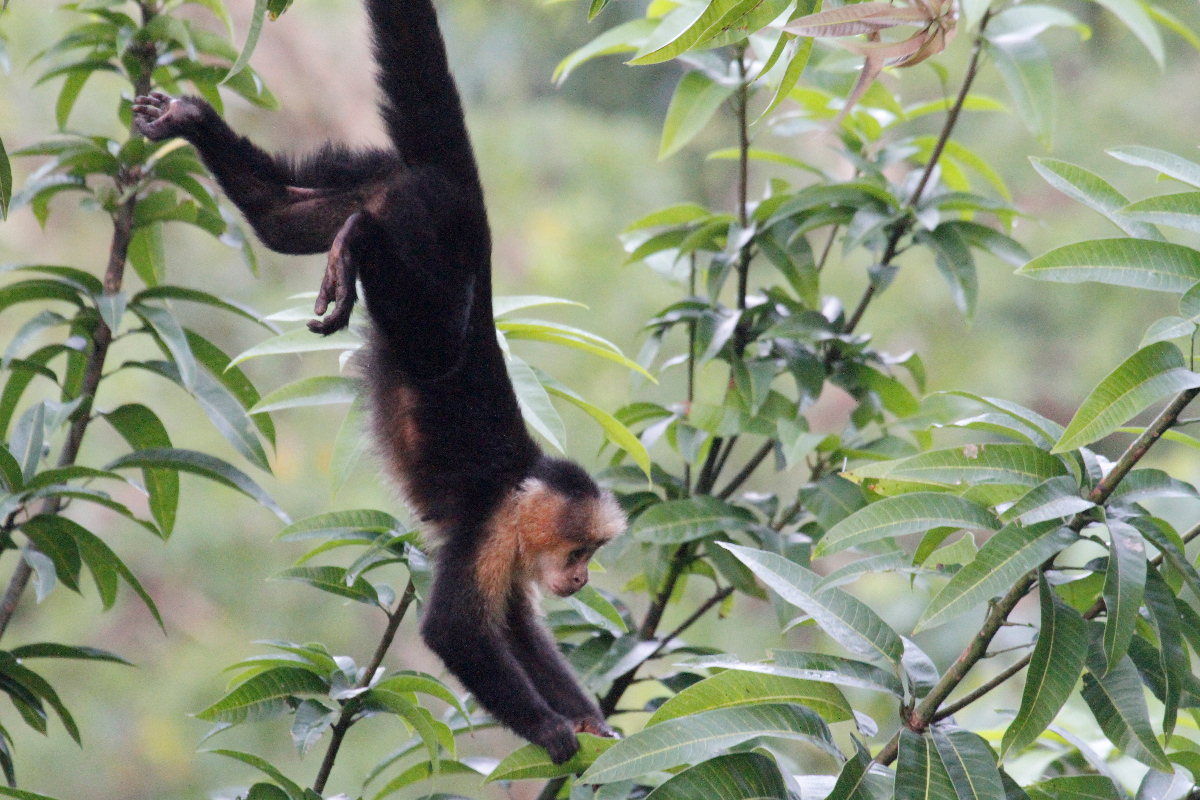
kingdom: Animalia
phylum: Chordata
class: Mammalia
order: Primates
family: Cebidae
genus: Cebus
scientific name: Cebus imitator
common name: Panamanian white-faced capuchin
